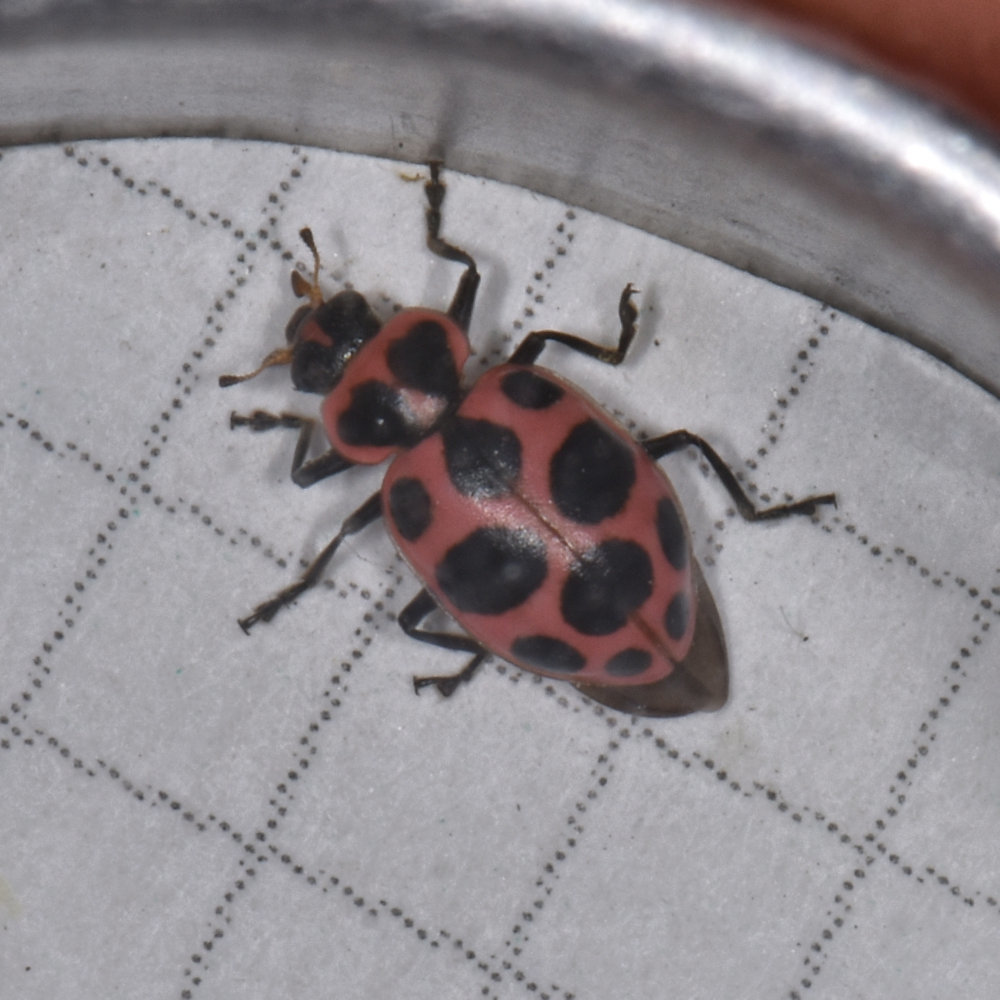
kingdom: Animalia
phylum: Arthropoda
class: Insecta
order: Coleoptera
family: Coccinellidae
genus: Coleomegilla
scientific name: Coleomegilla maculata
